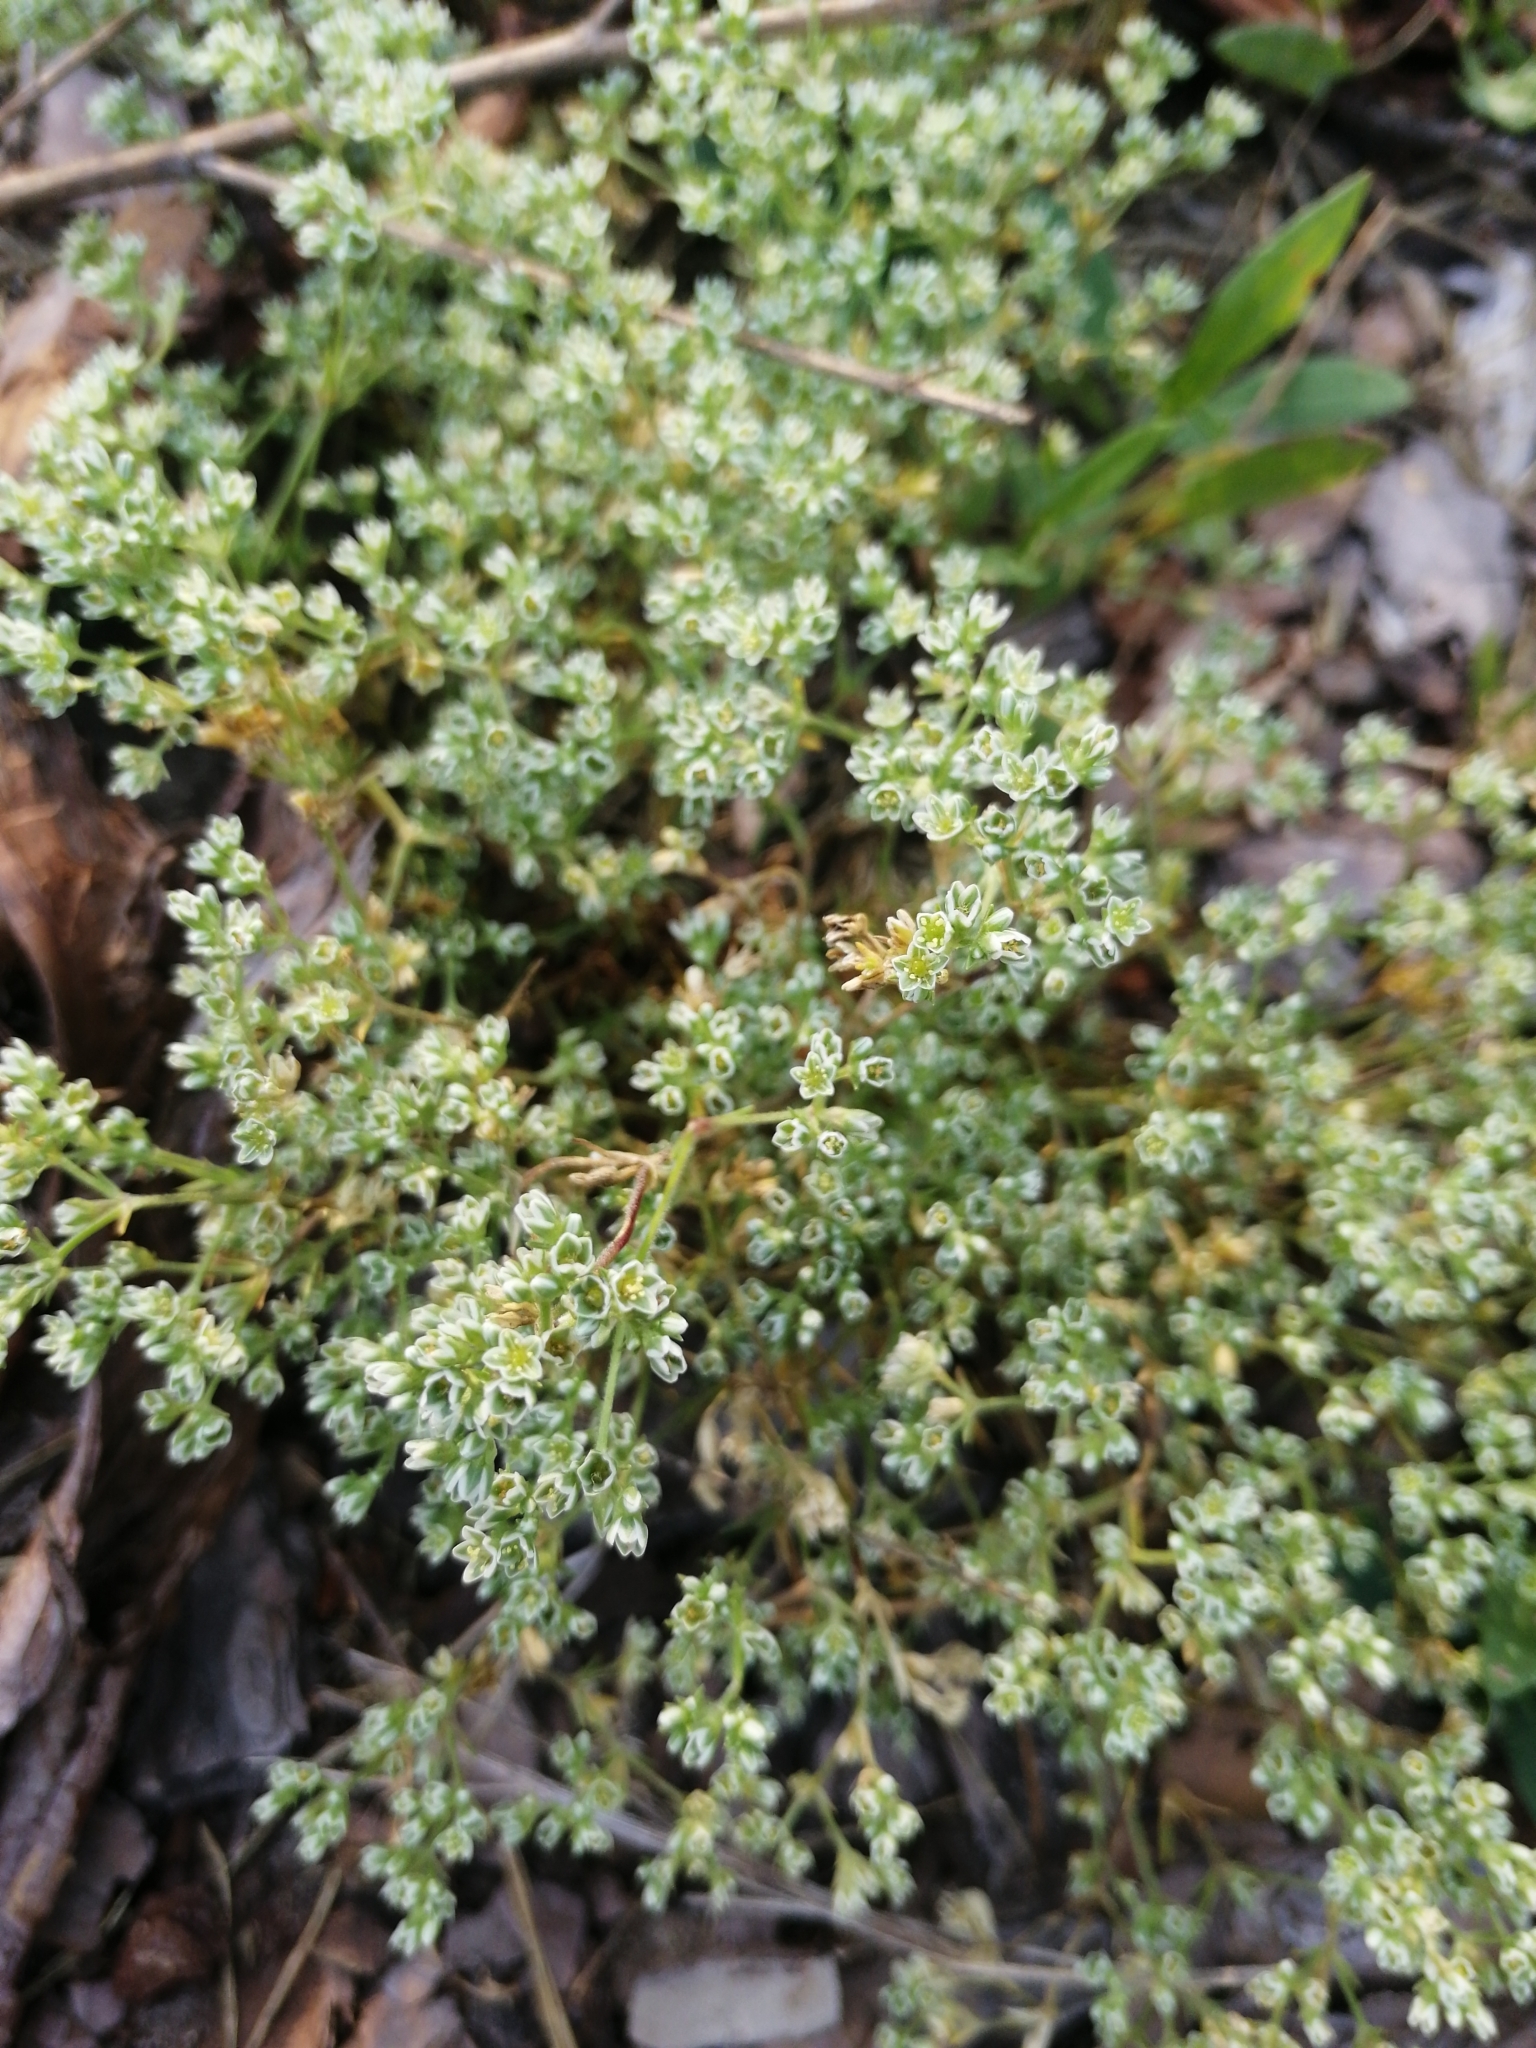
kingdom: Plantae
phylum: Tracheophyta
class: Magnoliopsida
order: Caryophyllales
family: Caryophyllaceae
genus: Scleranthus
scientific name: Scleranthus perennis
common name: Perennial knawel
